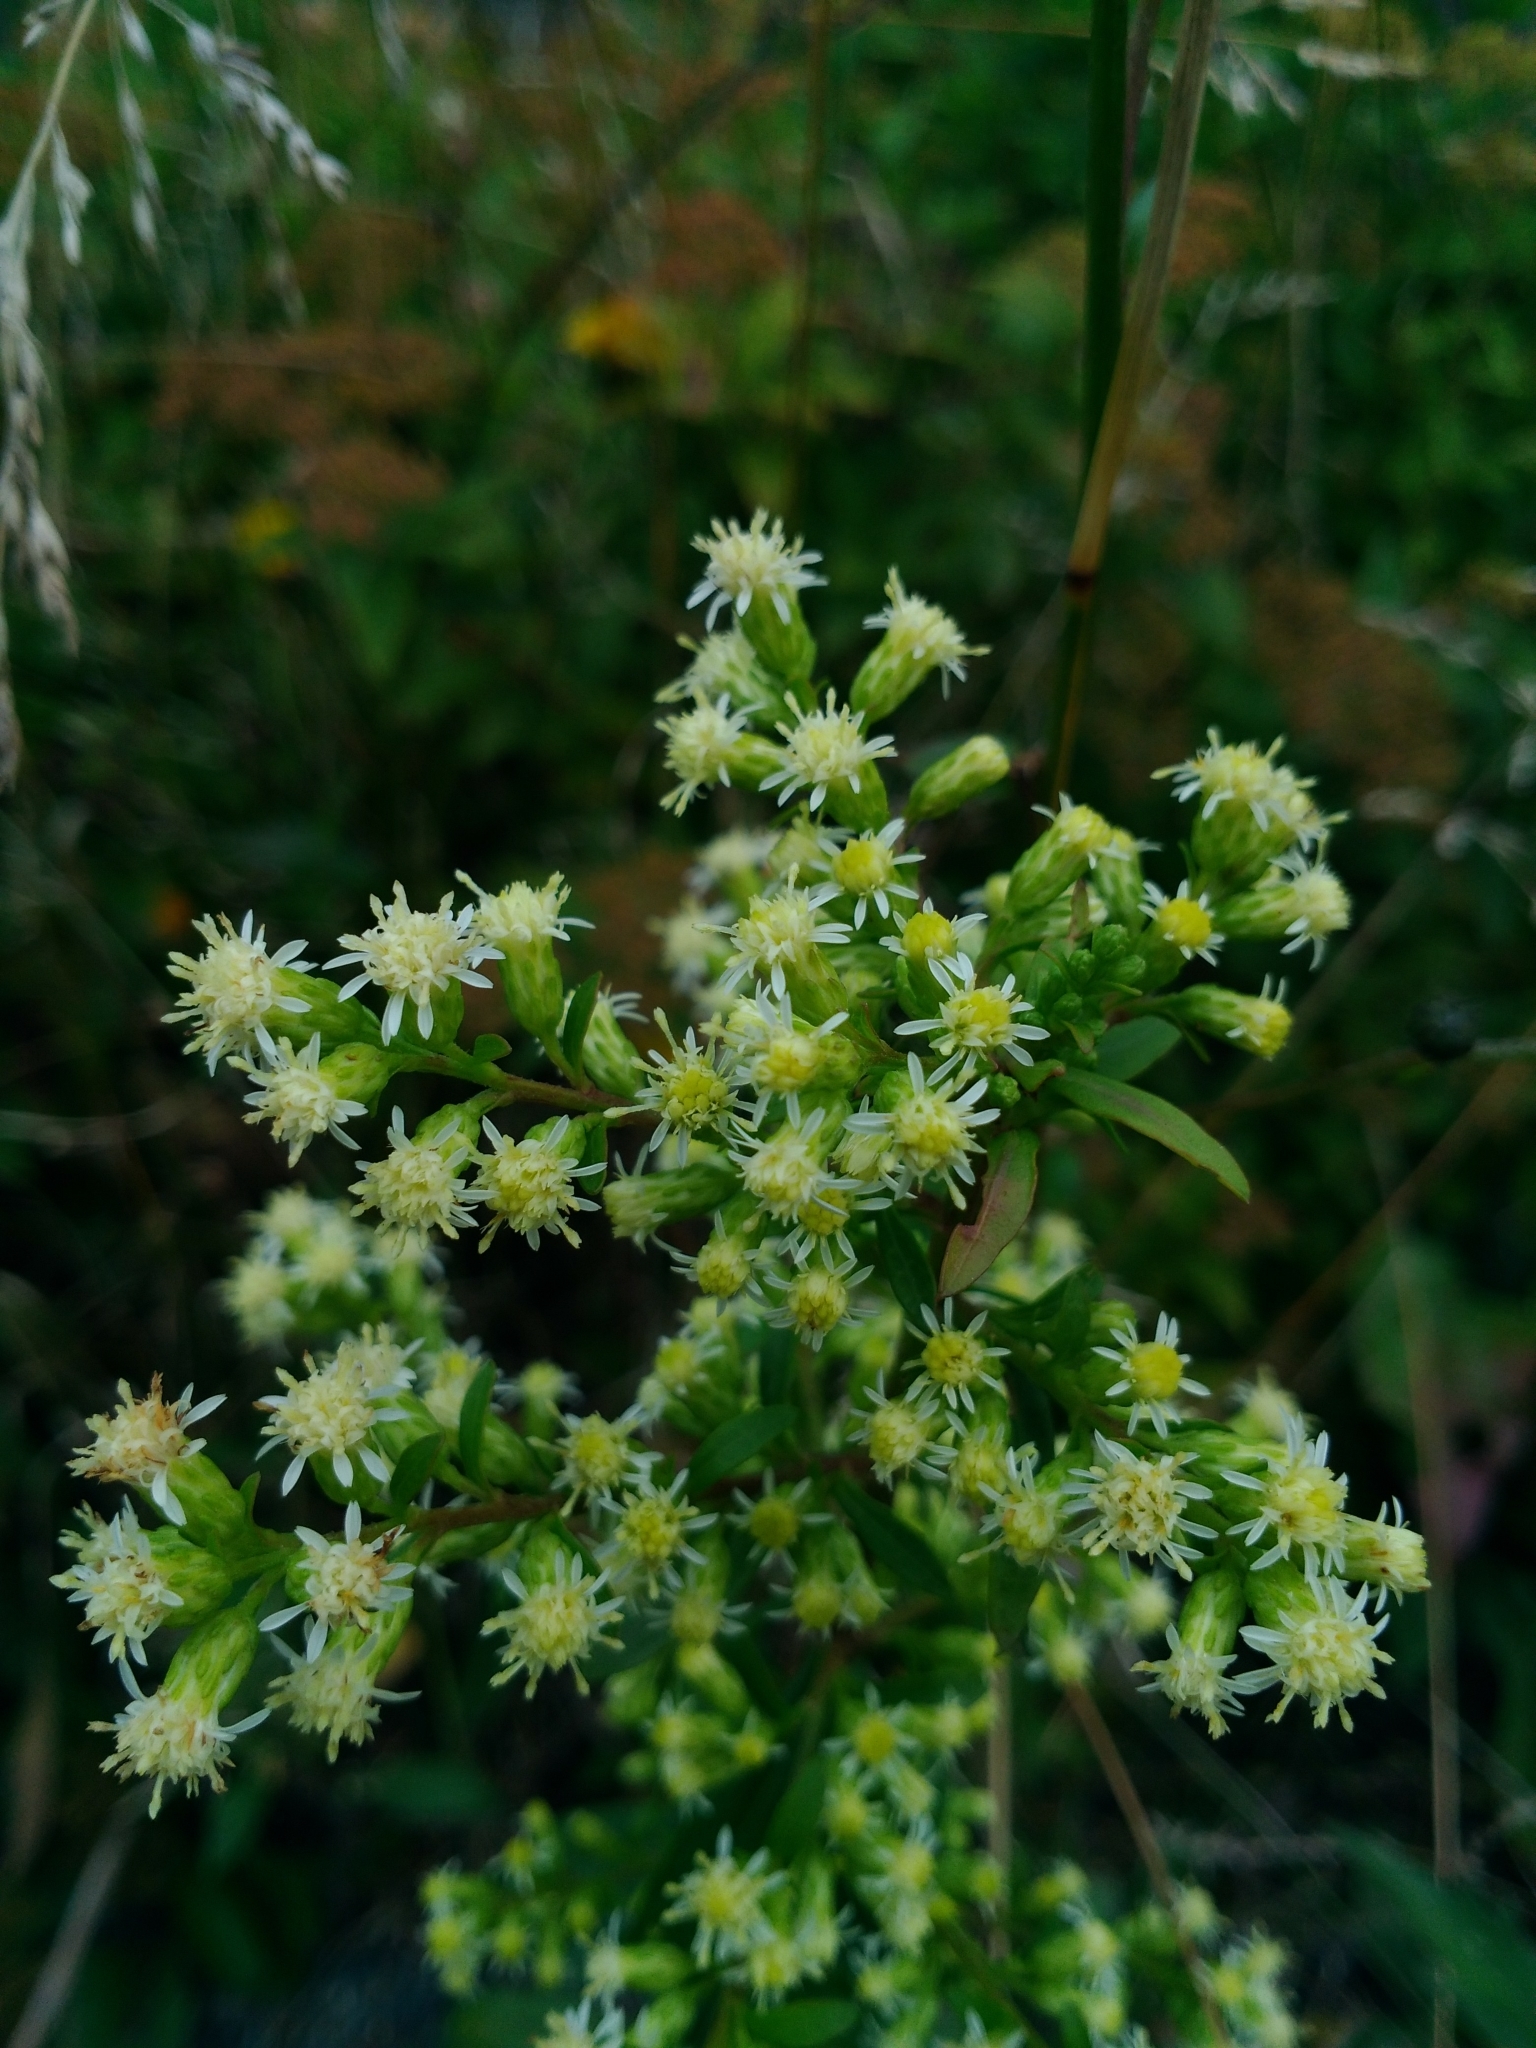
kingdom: Plantae
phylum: Tracheophyta
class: Magnoliopsida
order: Asterales
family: Asteraceae
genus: Solidago
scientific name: Solidago bicolor
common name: Silverrod
